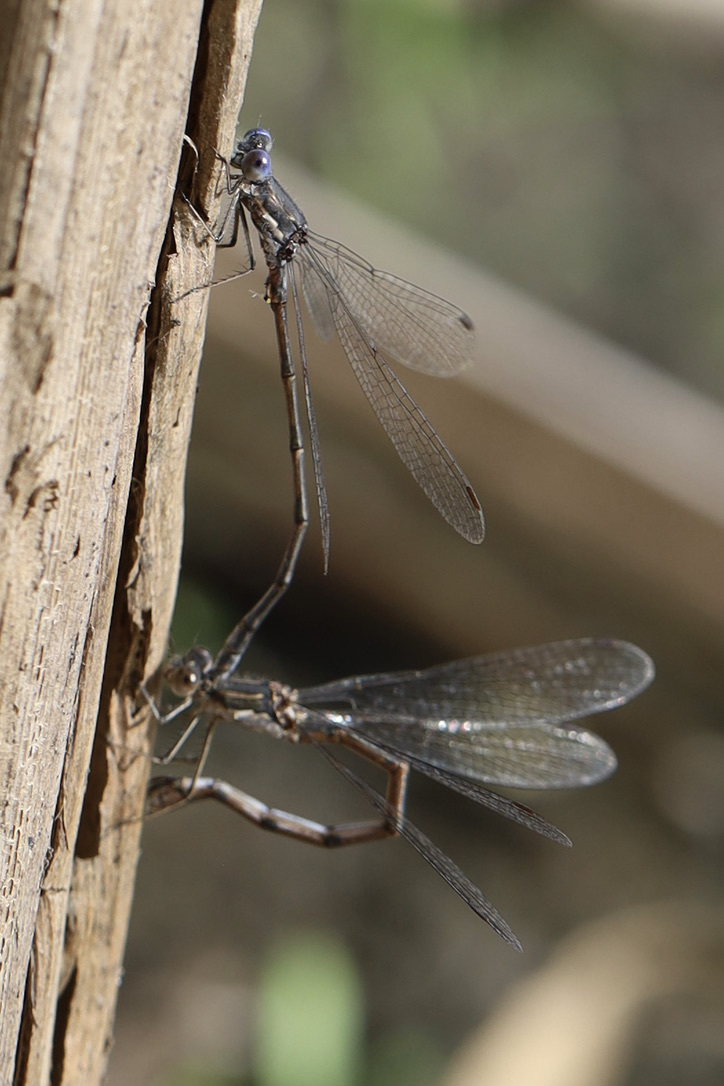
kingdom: Animalia
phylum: Arthropoda
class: Insecta
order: Odonata
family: Lestidae
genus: Lestes
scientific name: Lestes congener
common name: Spotted spreadwing
